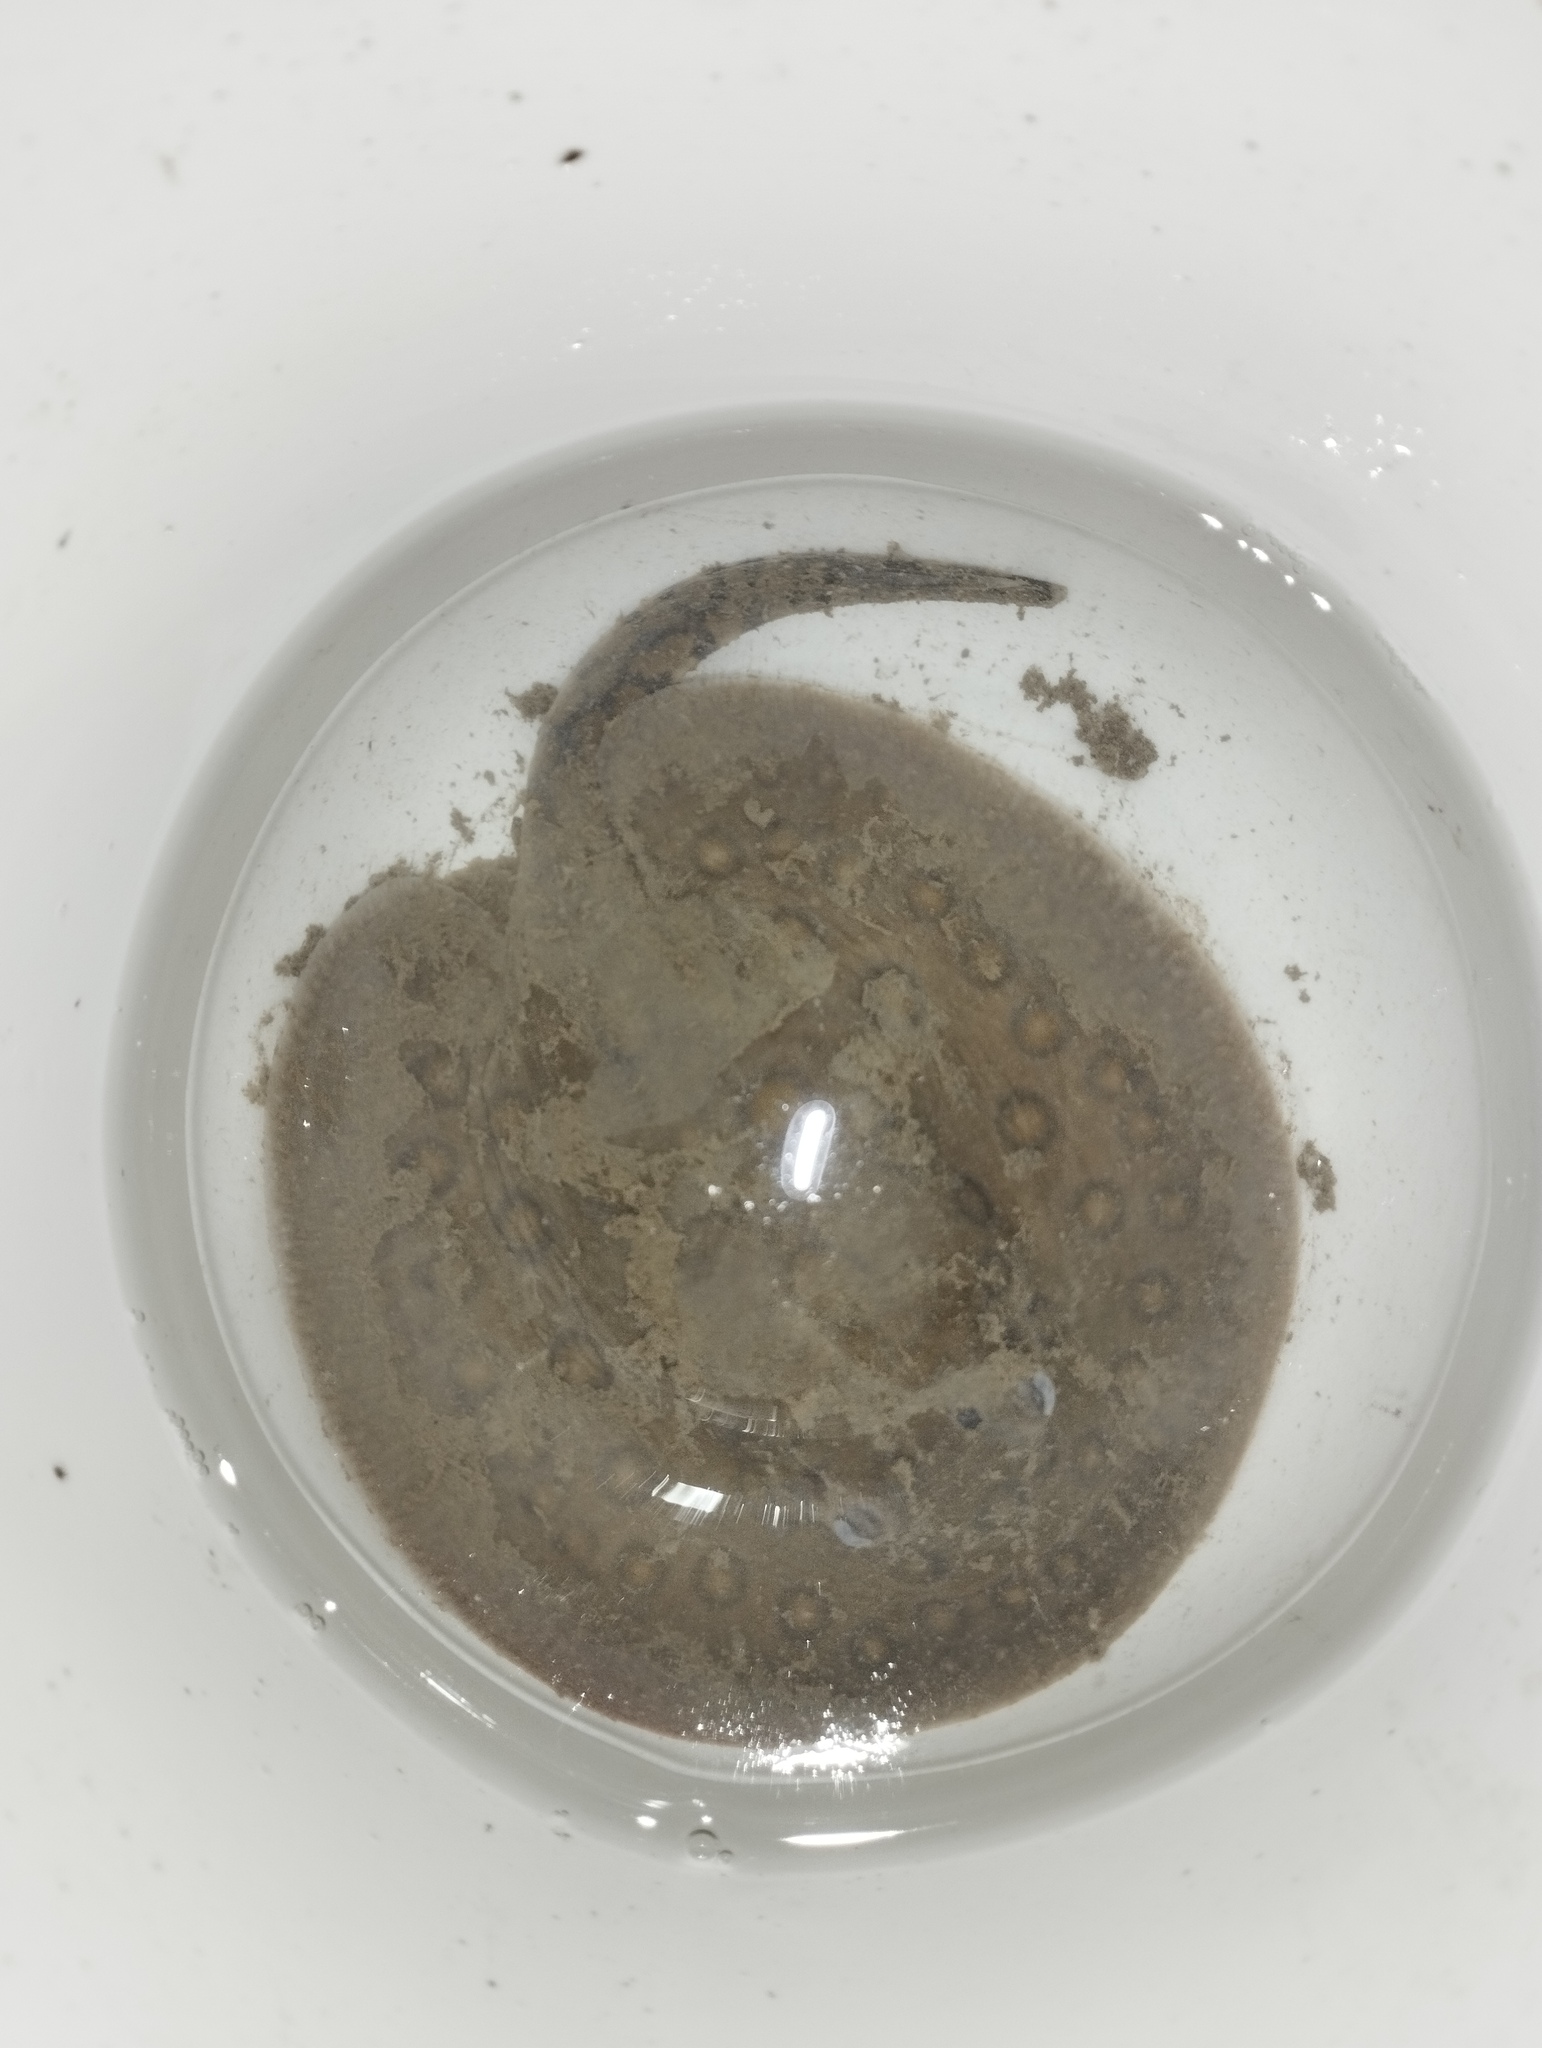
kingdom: Animalia
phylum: Chordata
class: Elasmobranchii
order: Myliobatiformes
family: Potamotrygonidae
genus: Potamotrygon
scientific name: Potamotrygon motoro
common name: South american freshwater stingray
